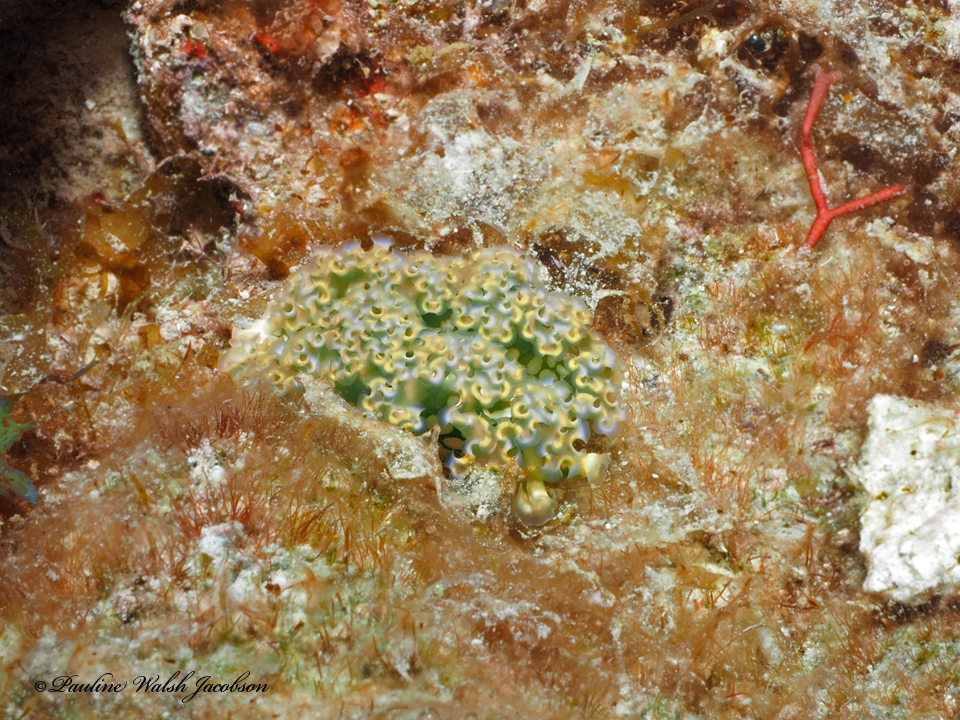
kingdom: Animalia
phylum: Mollusca
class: Gastropoda
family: Plakobranchidae
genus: Elysia
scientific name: Elysia crispata
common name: Lettuce slug
